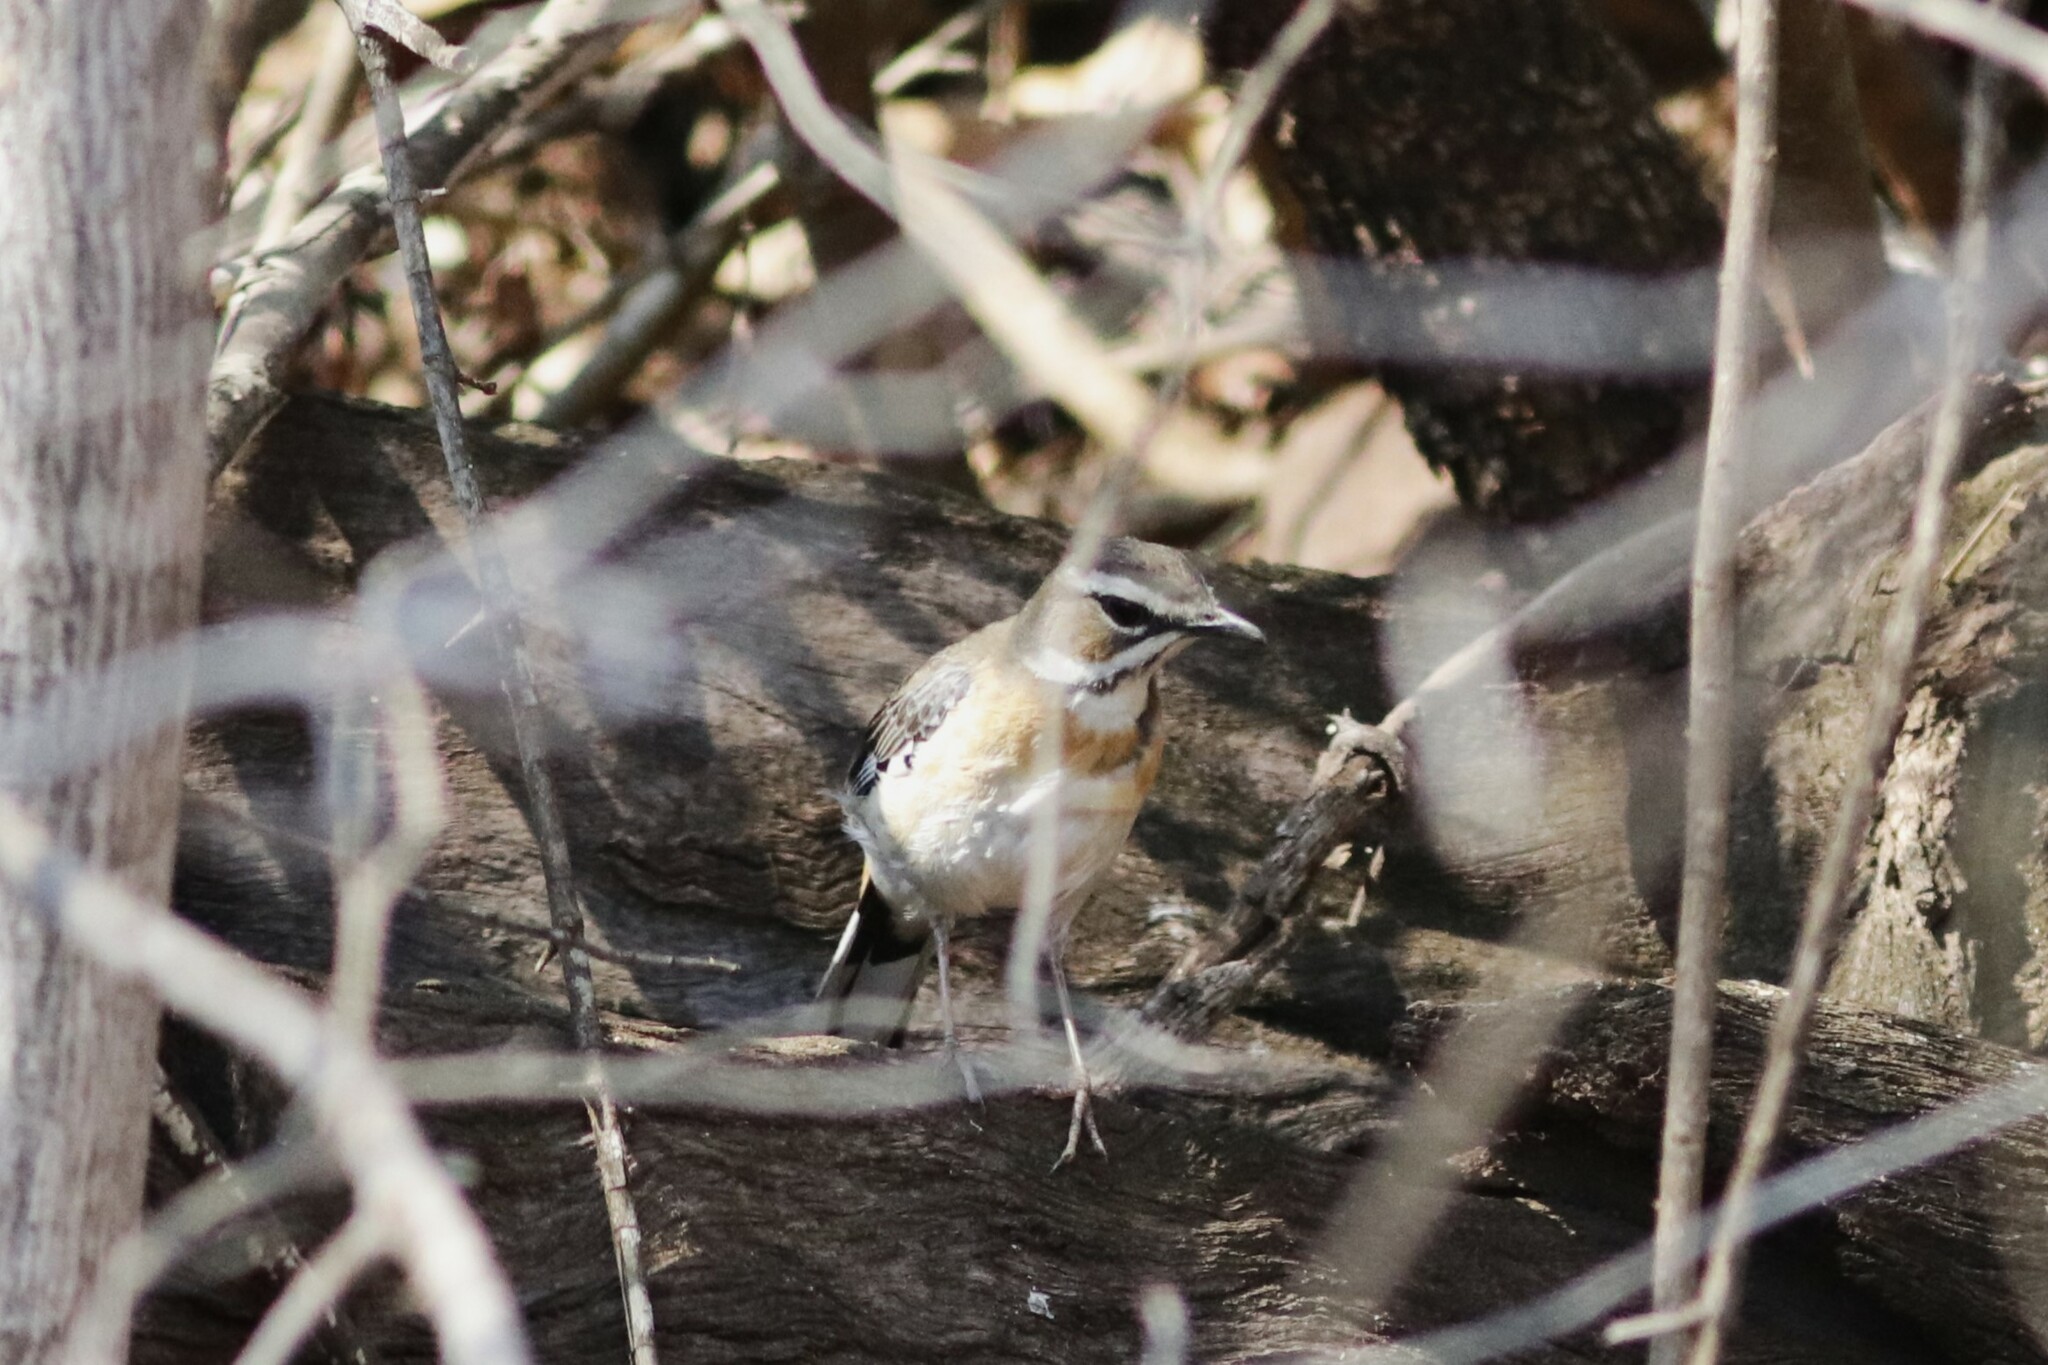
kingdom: Animalia
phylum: Chordata
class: Aves
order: Passeriformes
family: Muscicapidae
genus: Erythropygia
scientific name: Erythropygia quadrivirgata
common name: Bearded scrub robin
